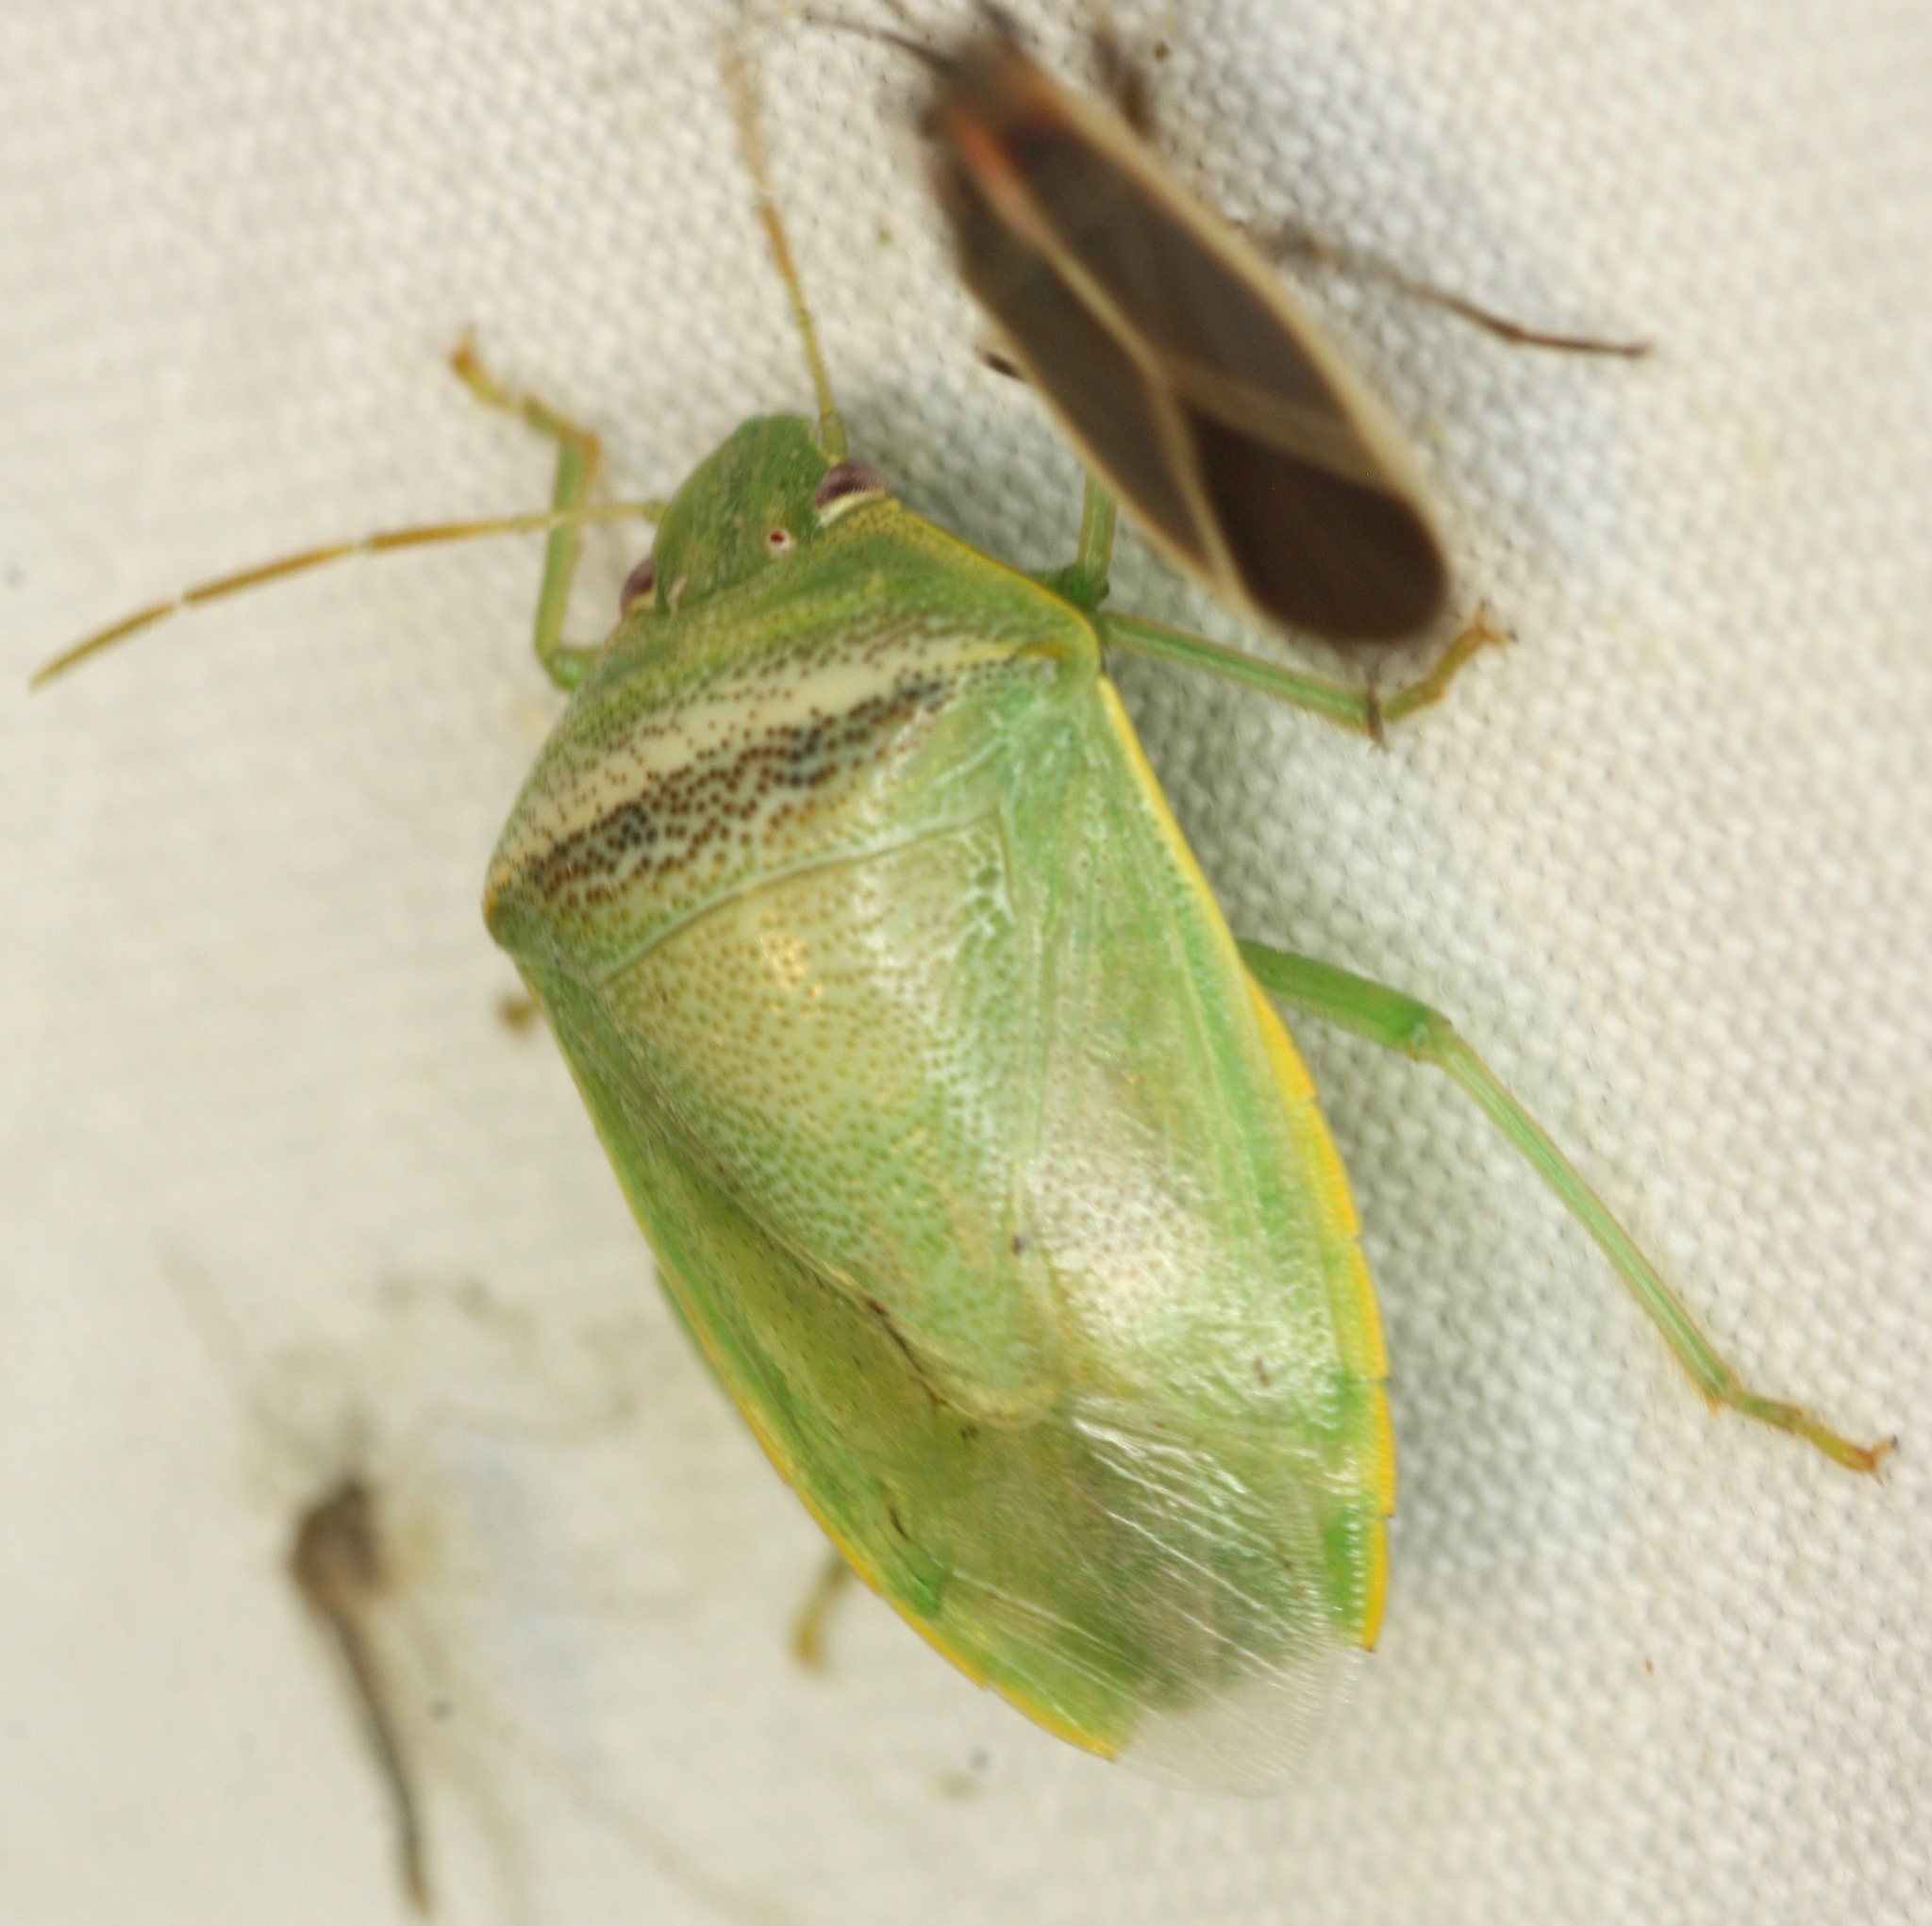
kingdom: Animalia
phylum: Arthropoda
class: Insecta
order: Hemiptera
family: Pentatomidae
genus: Piezodorus
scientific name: Piezodorus guildinii
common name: Redbanded stink bug
